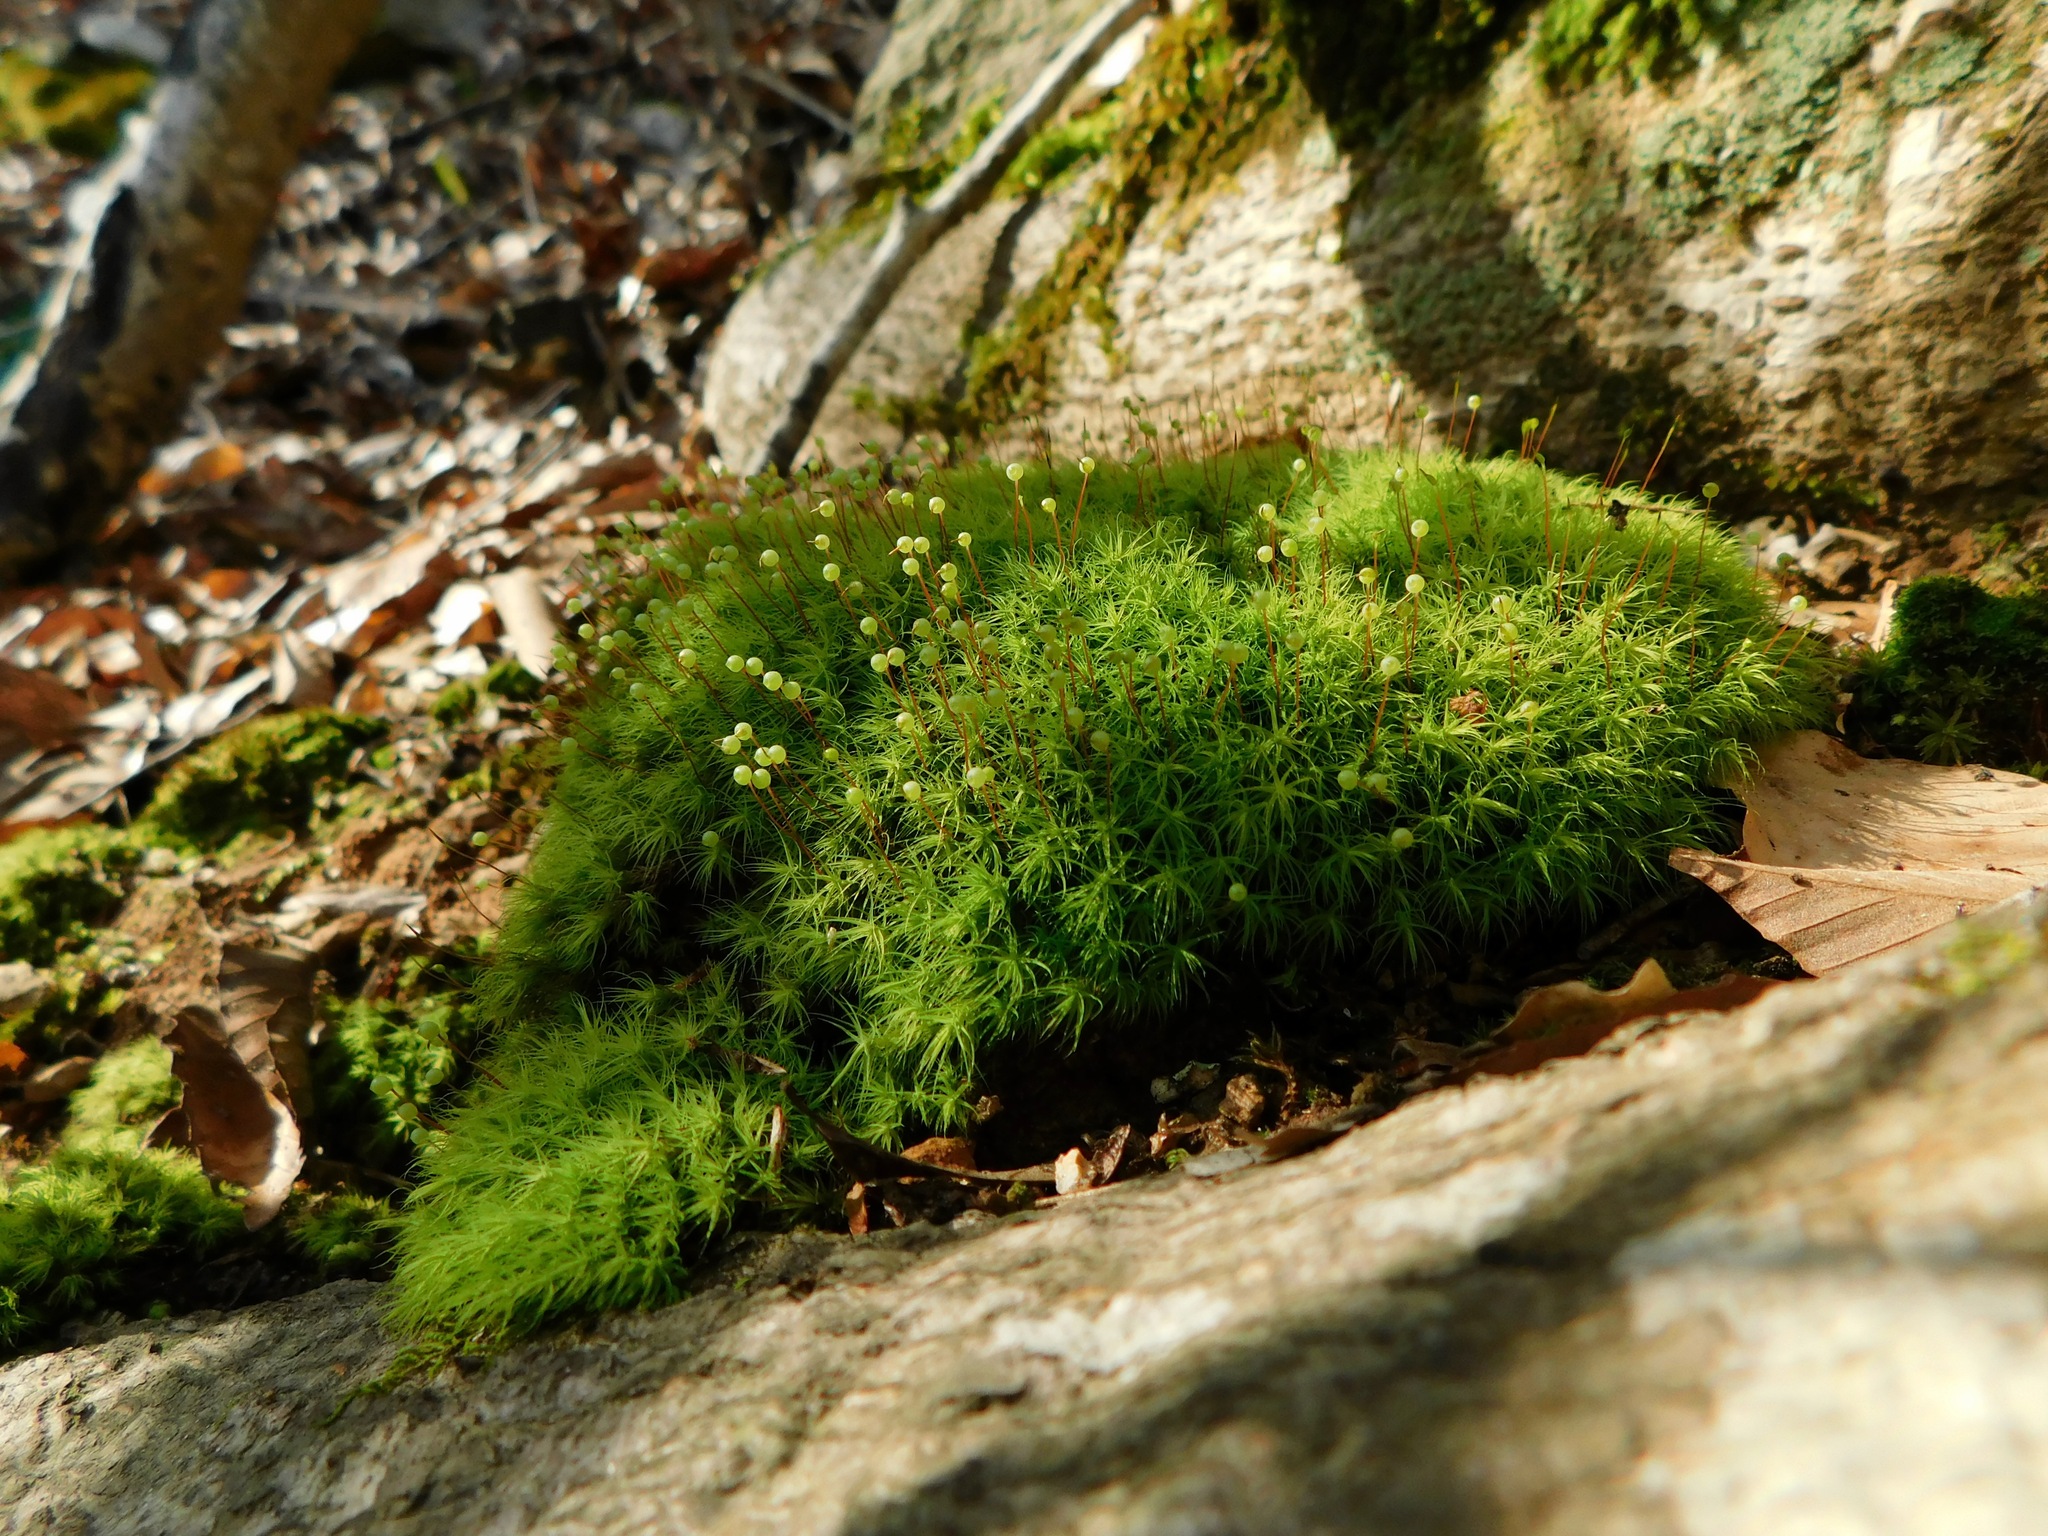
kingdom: Plantae
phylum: Bryophyta
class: Bryopsida
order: Bartramiales
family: Bartramiaceae
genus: Bartramia
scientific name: Bartramia ithyphylla
